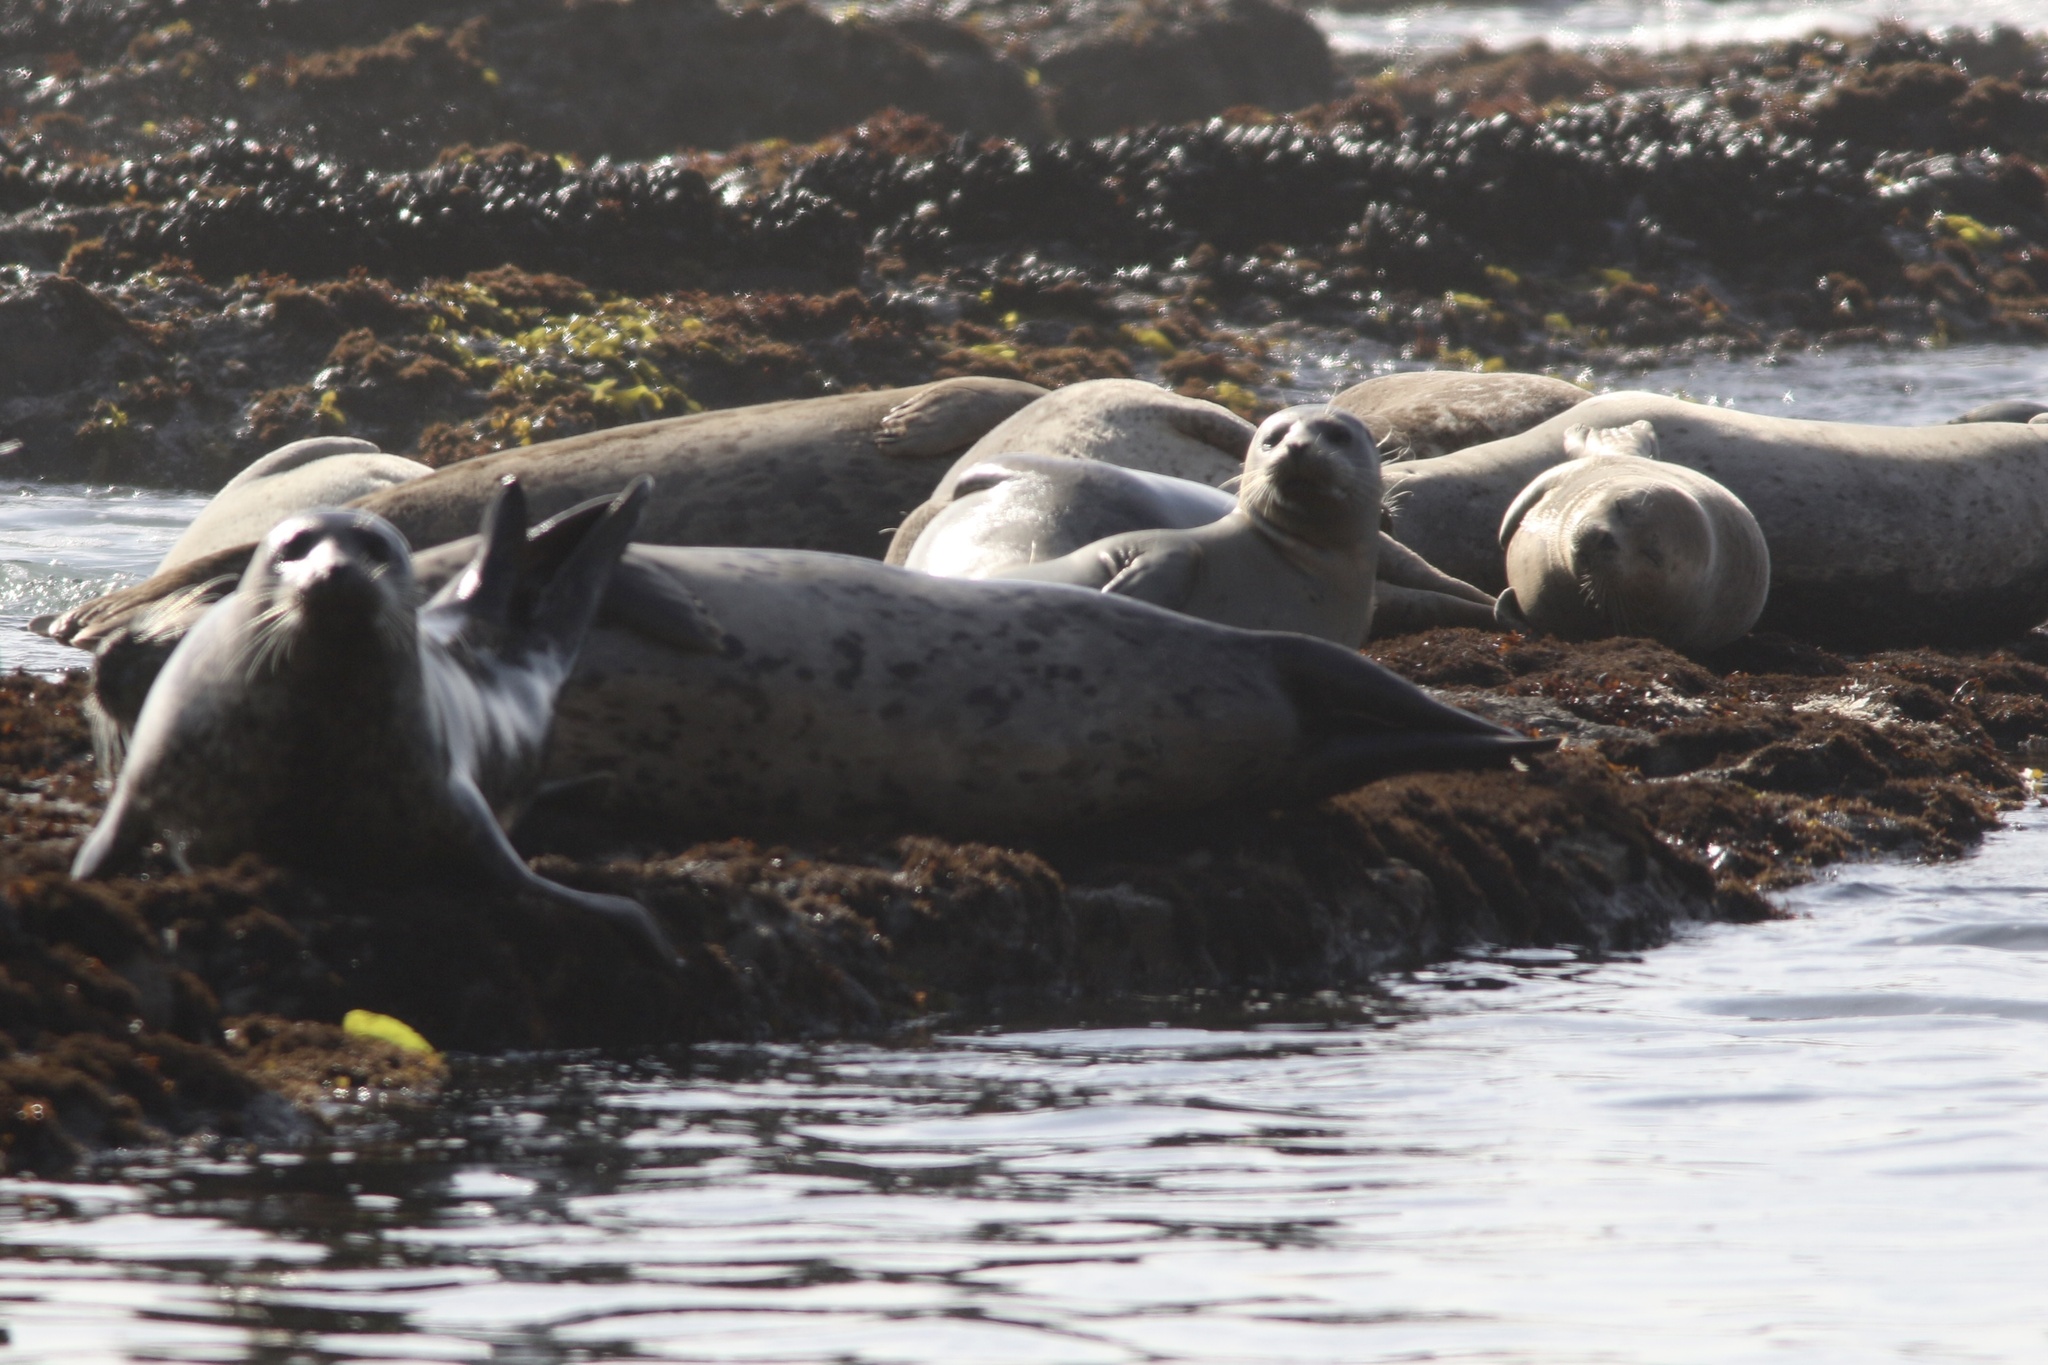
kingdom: Animalia
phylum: Chordata
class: Mammalia
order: Carnivora
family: Phocidae
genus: Phoca
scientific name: Phoca vitulina
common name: Harbor seal
